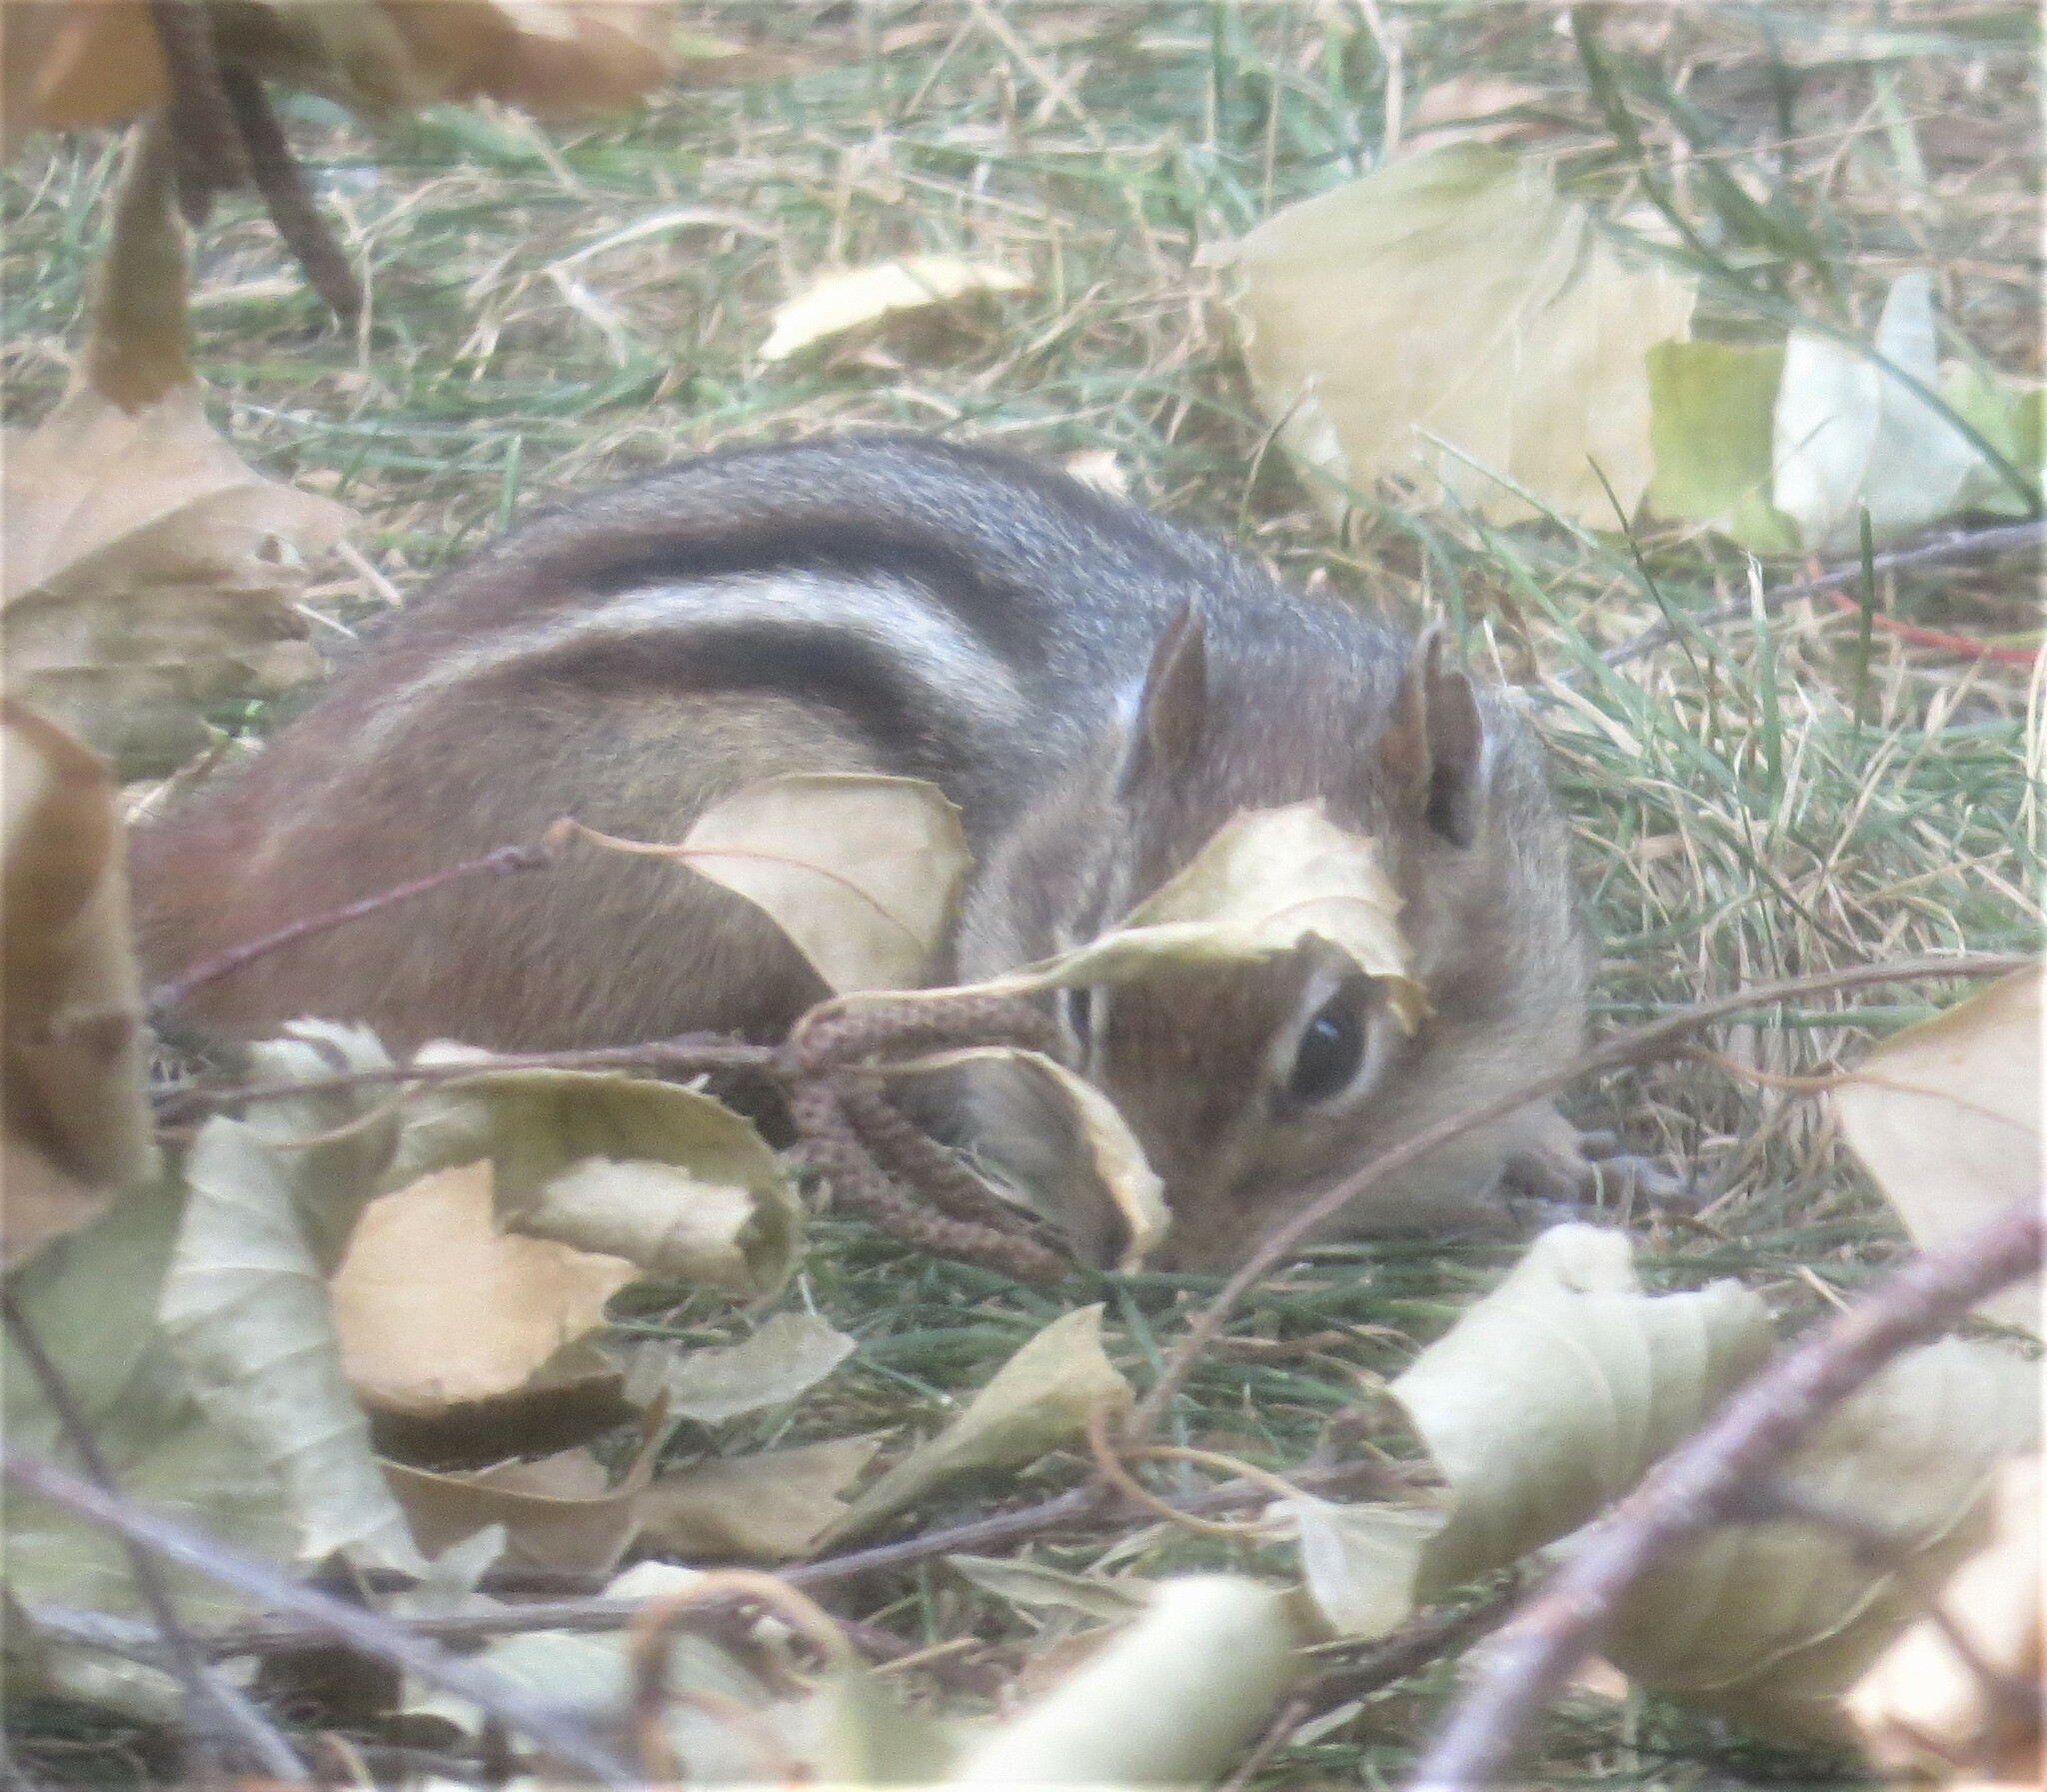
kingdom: Animalia
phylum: Chordata
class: Mammalia
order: Rodentia
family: Sciuridae
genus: Tamias
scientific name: Tamias striatus
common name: Eastern chipmunk
